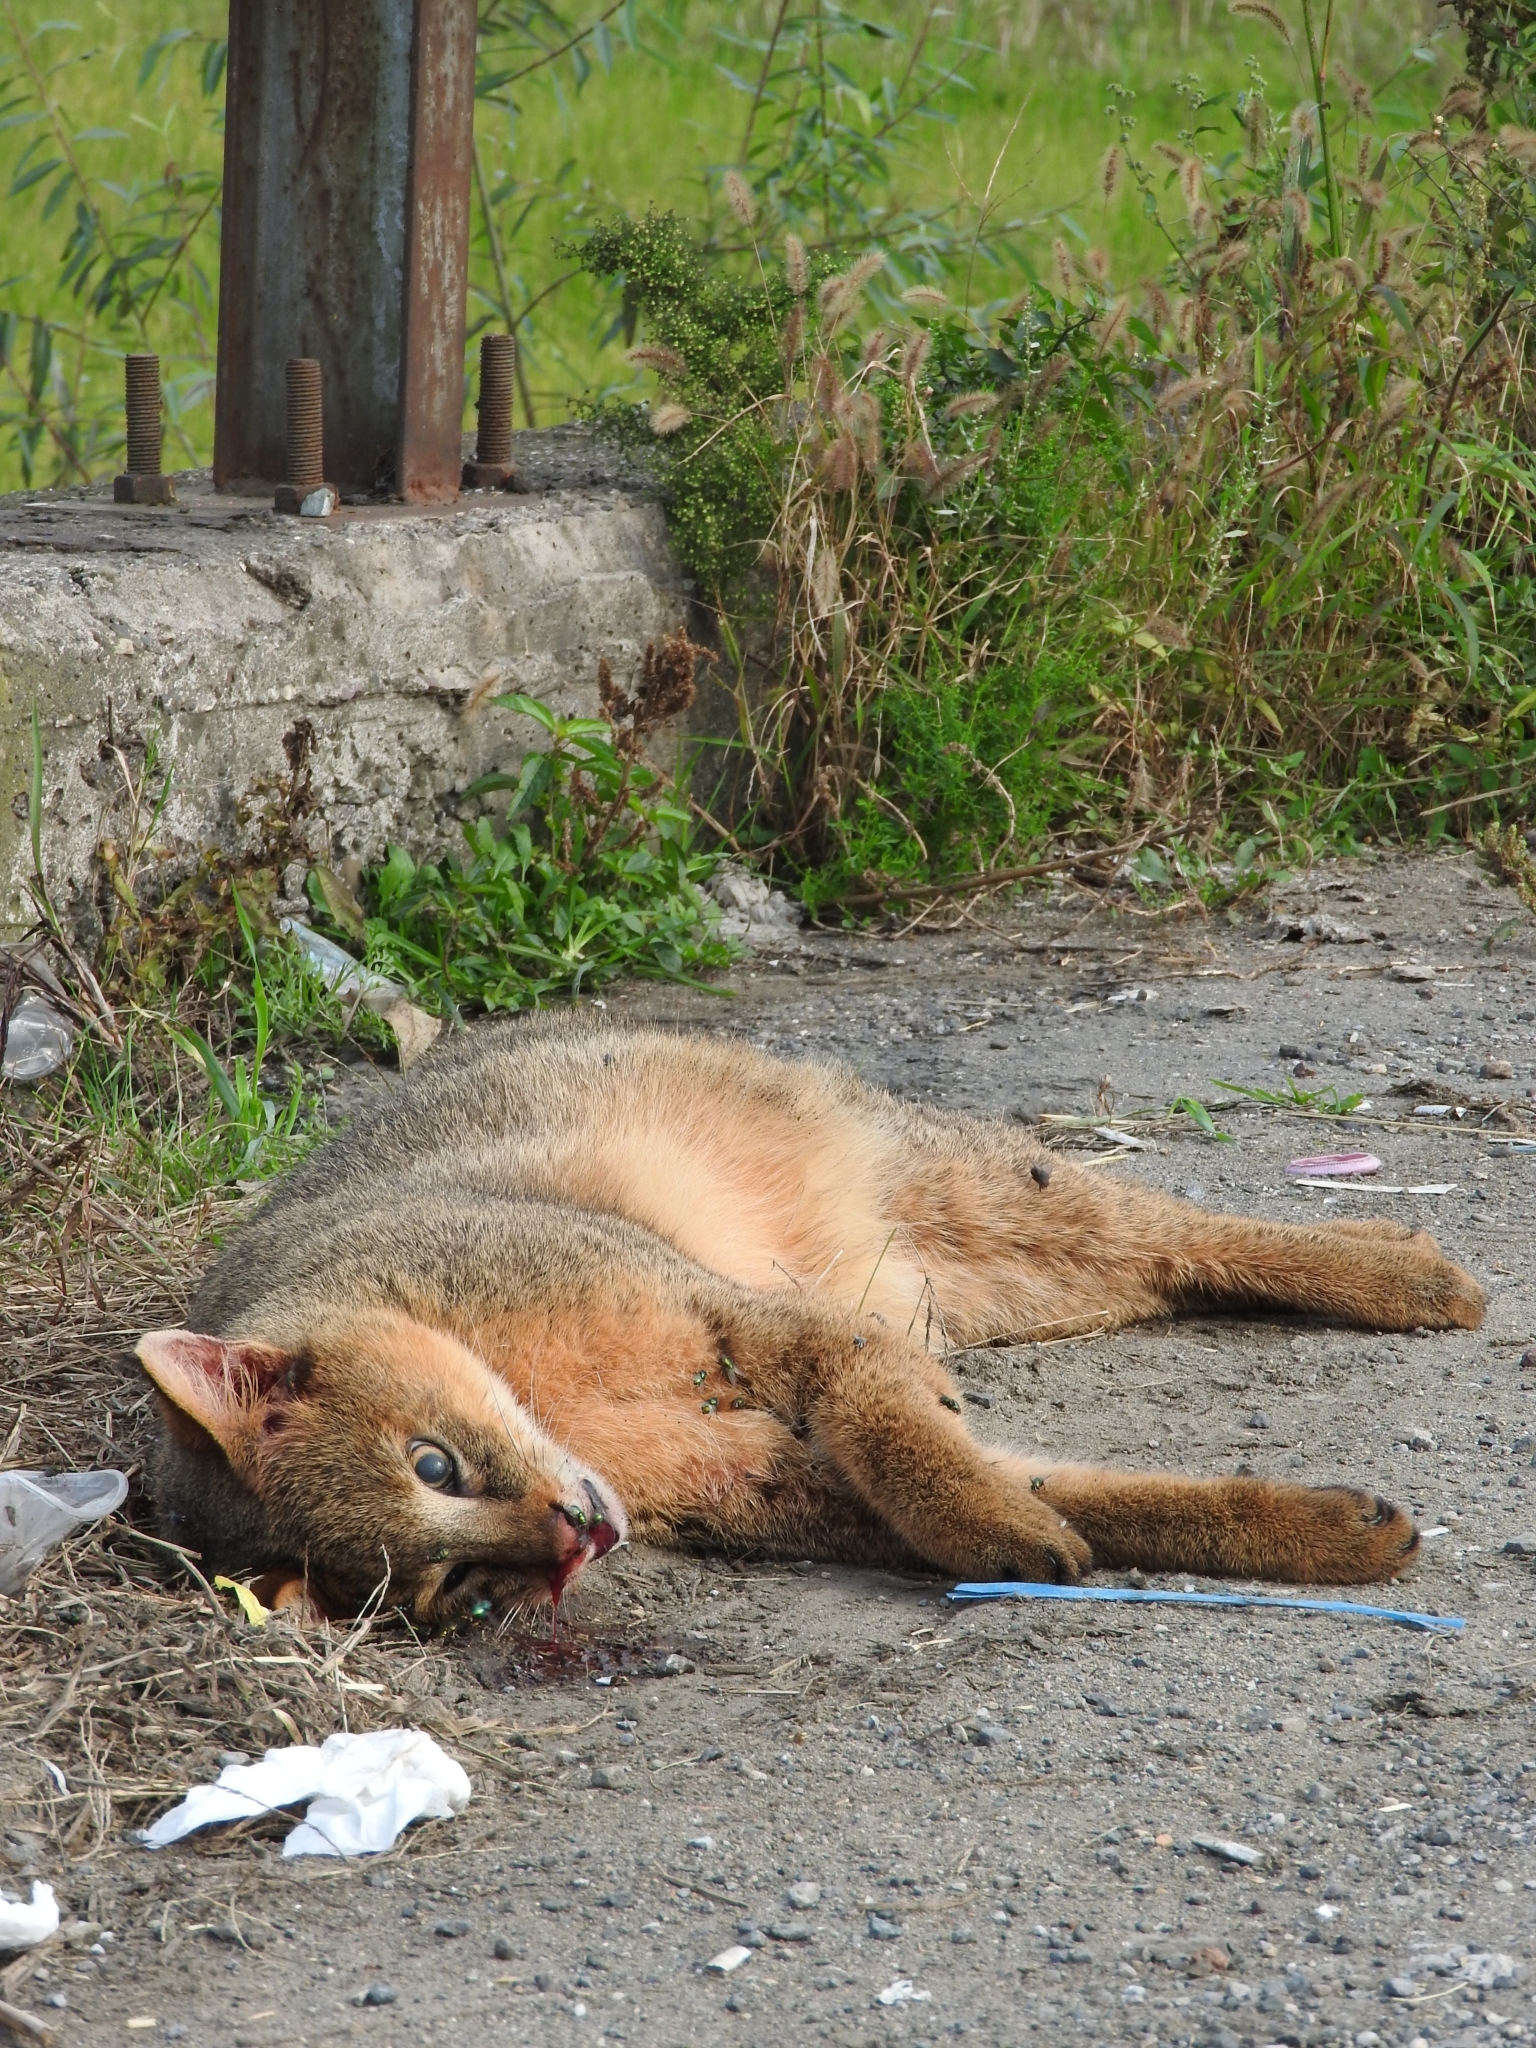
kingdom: Animalia
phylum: Chordata
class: Mammalia
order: Carnivora
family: Felidae
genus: Felis
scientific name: Felis chaus
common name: Jungle cat
